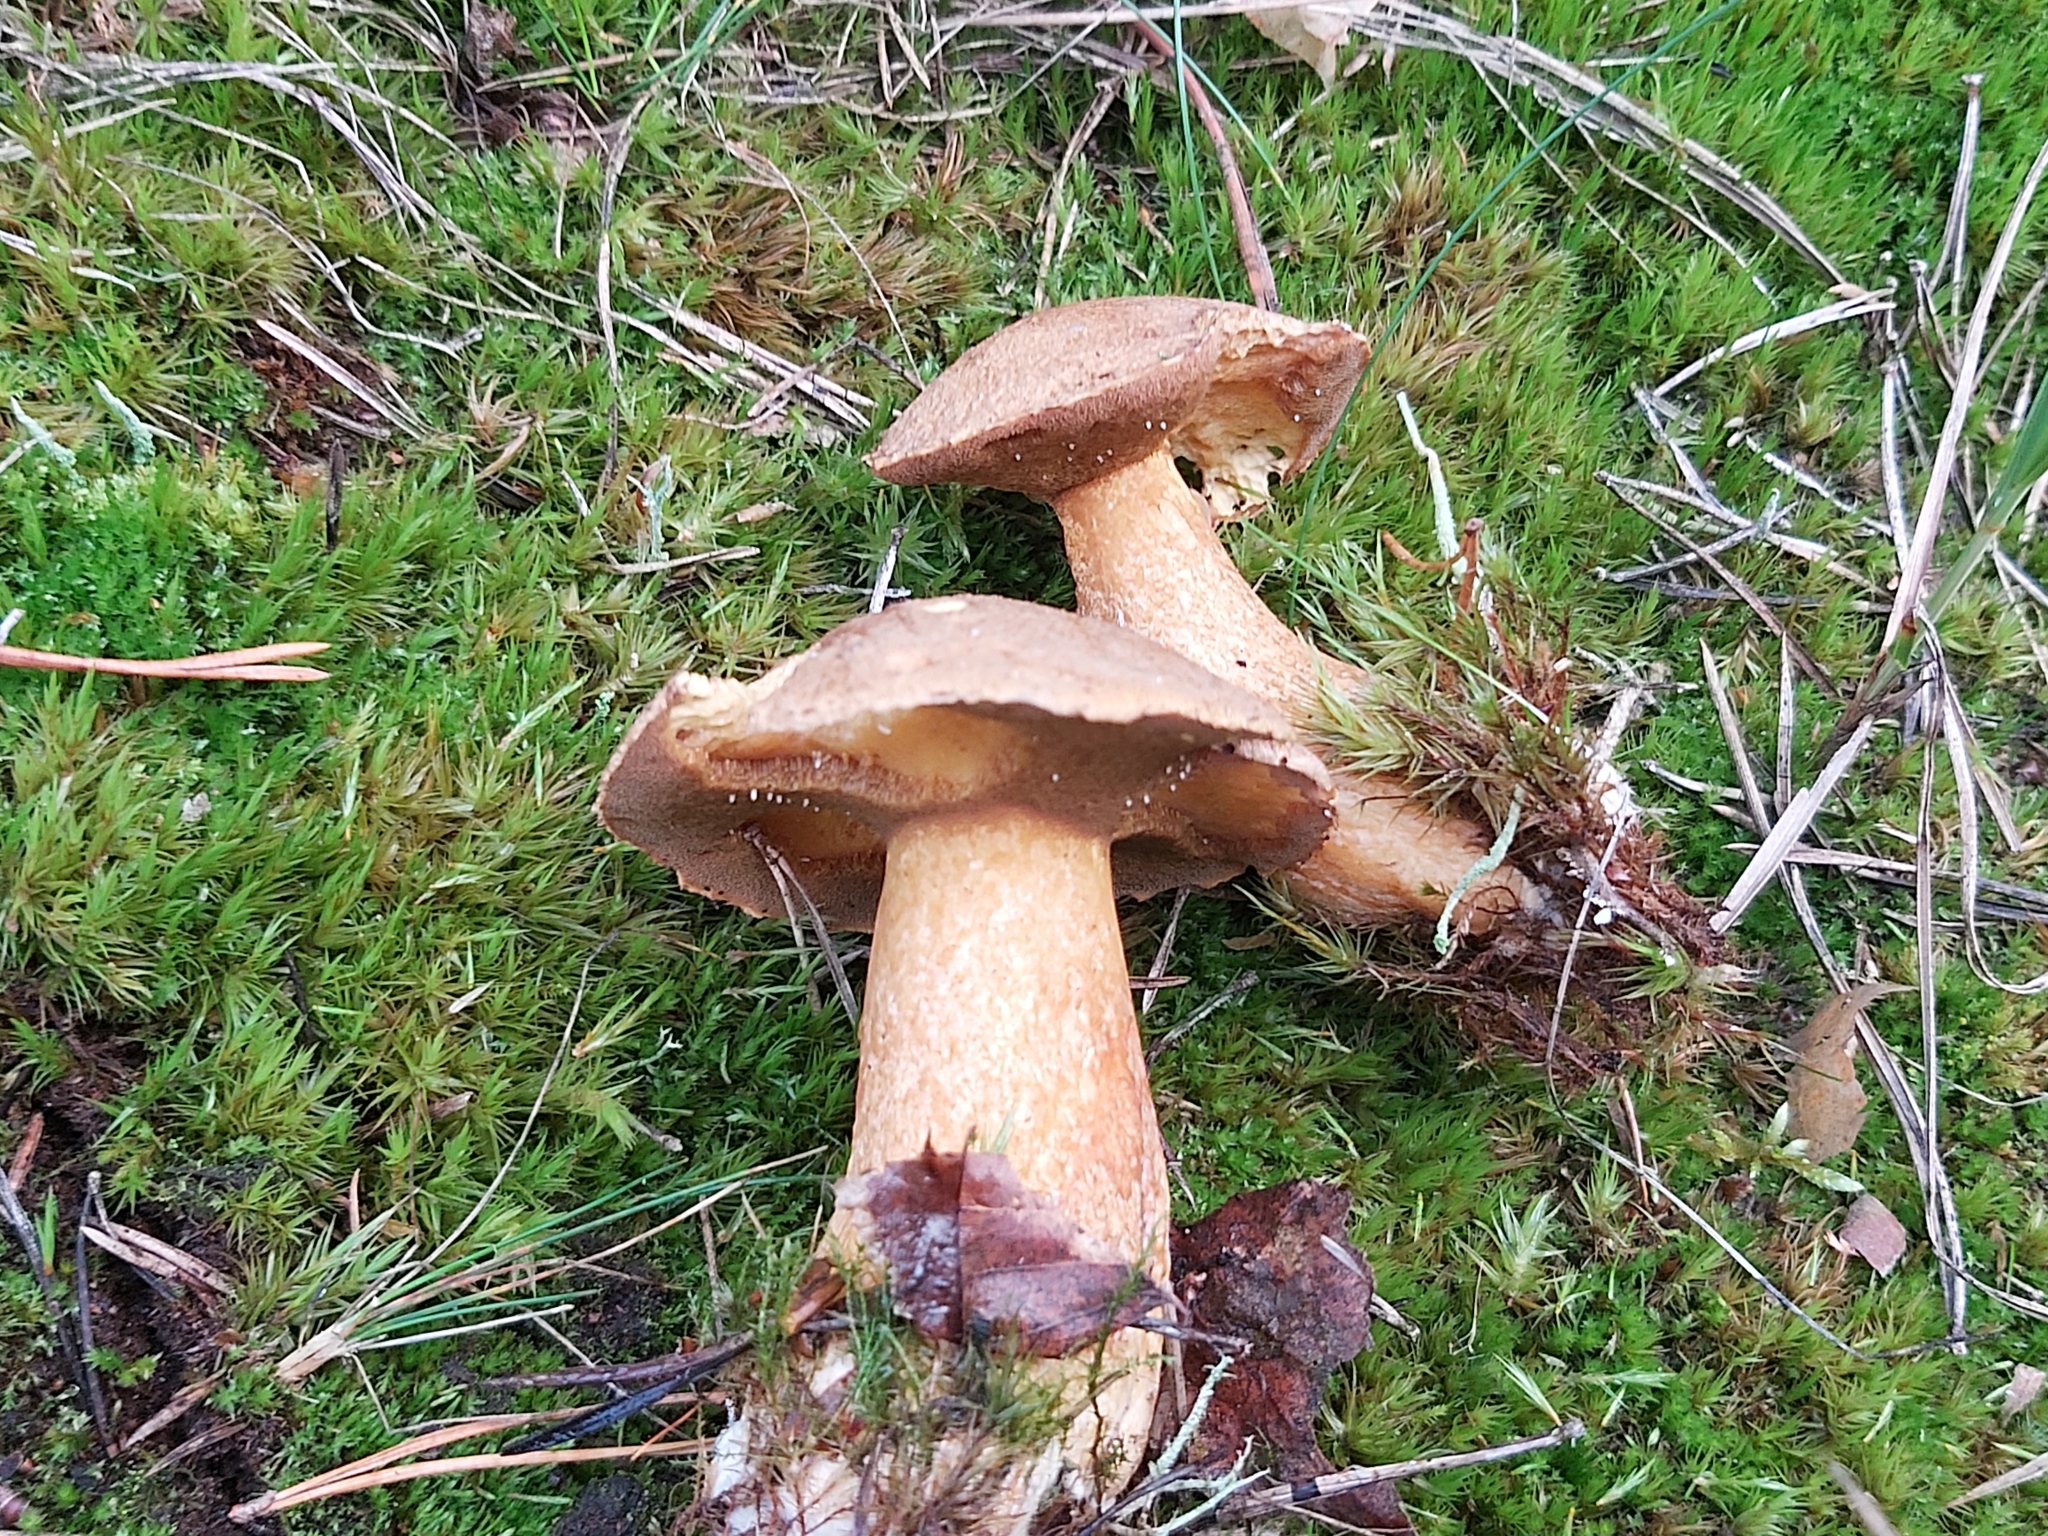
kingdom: Fungi
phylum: Basidiomycota
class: Agaricomycetes
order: Boletales
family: Suillaceae
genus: Suillus
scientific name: Suillus variegatus
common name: Velvet bolete
